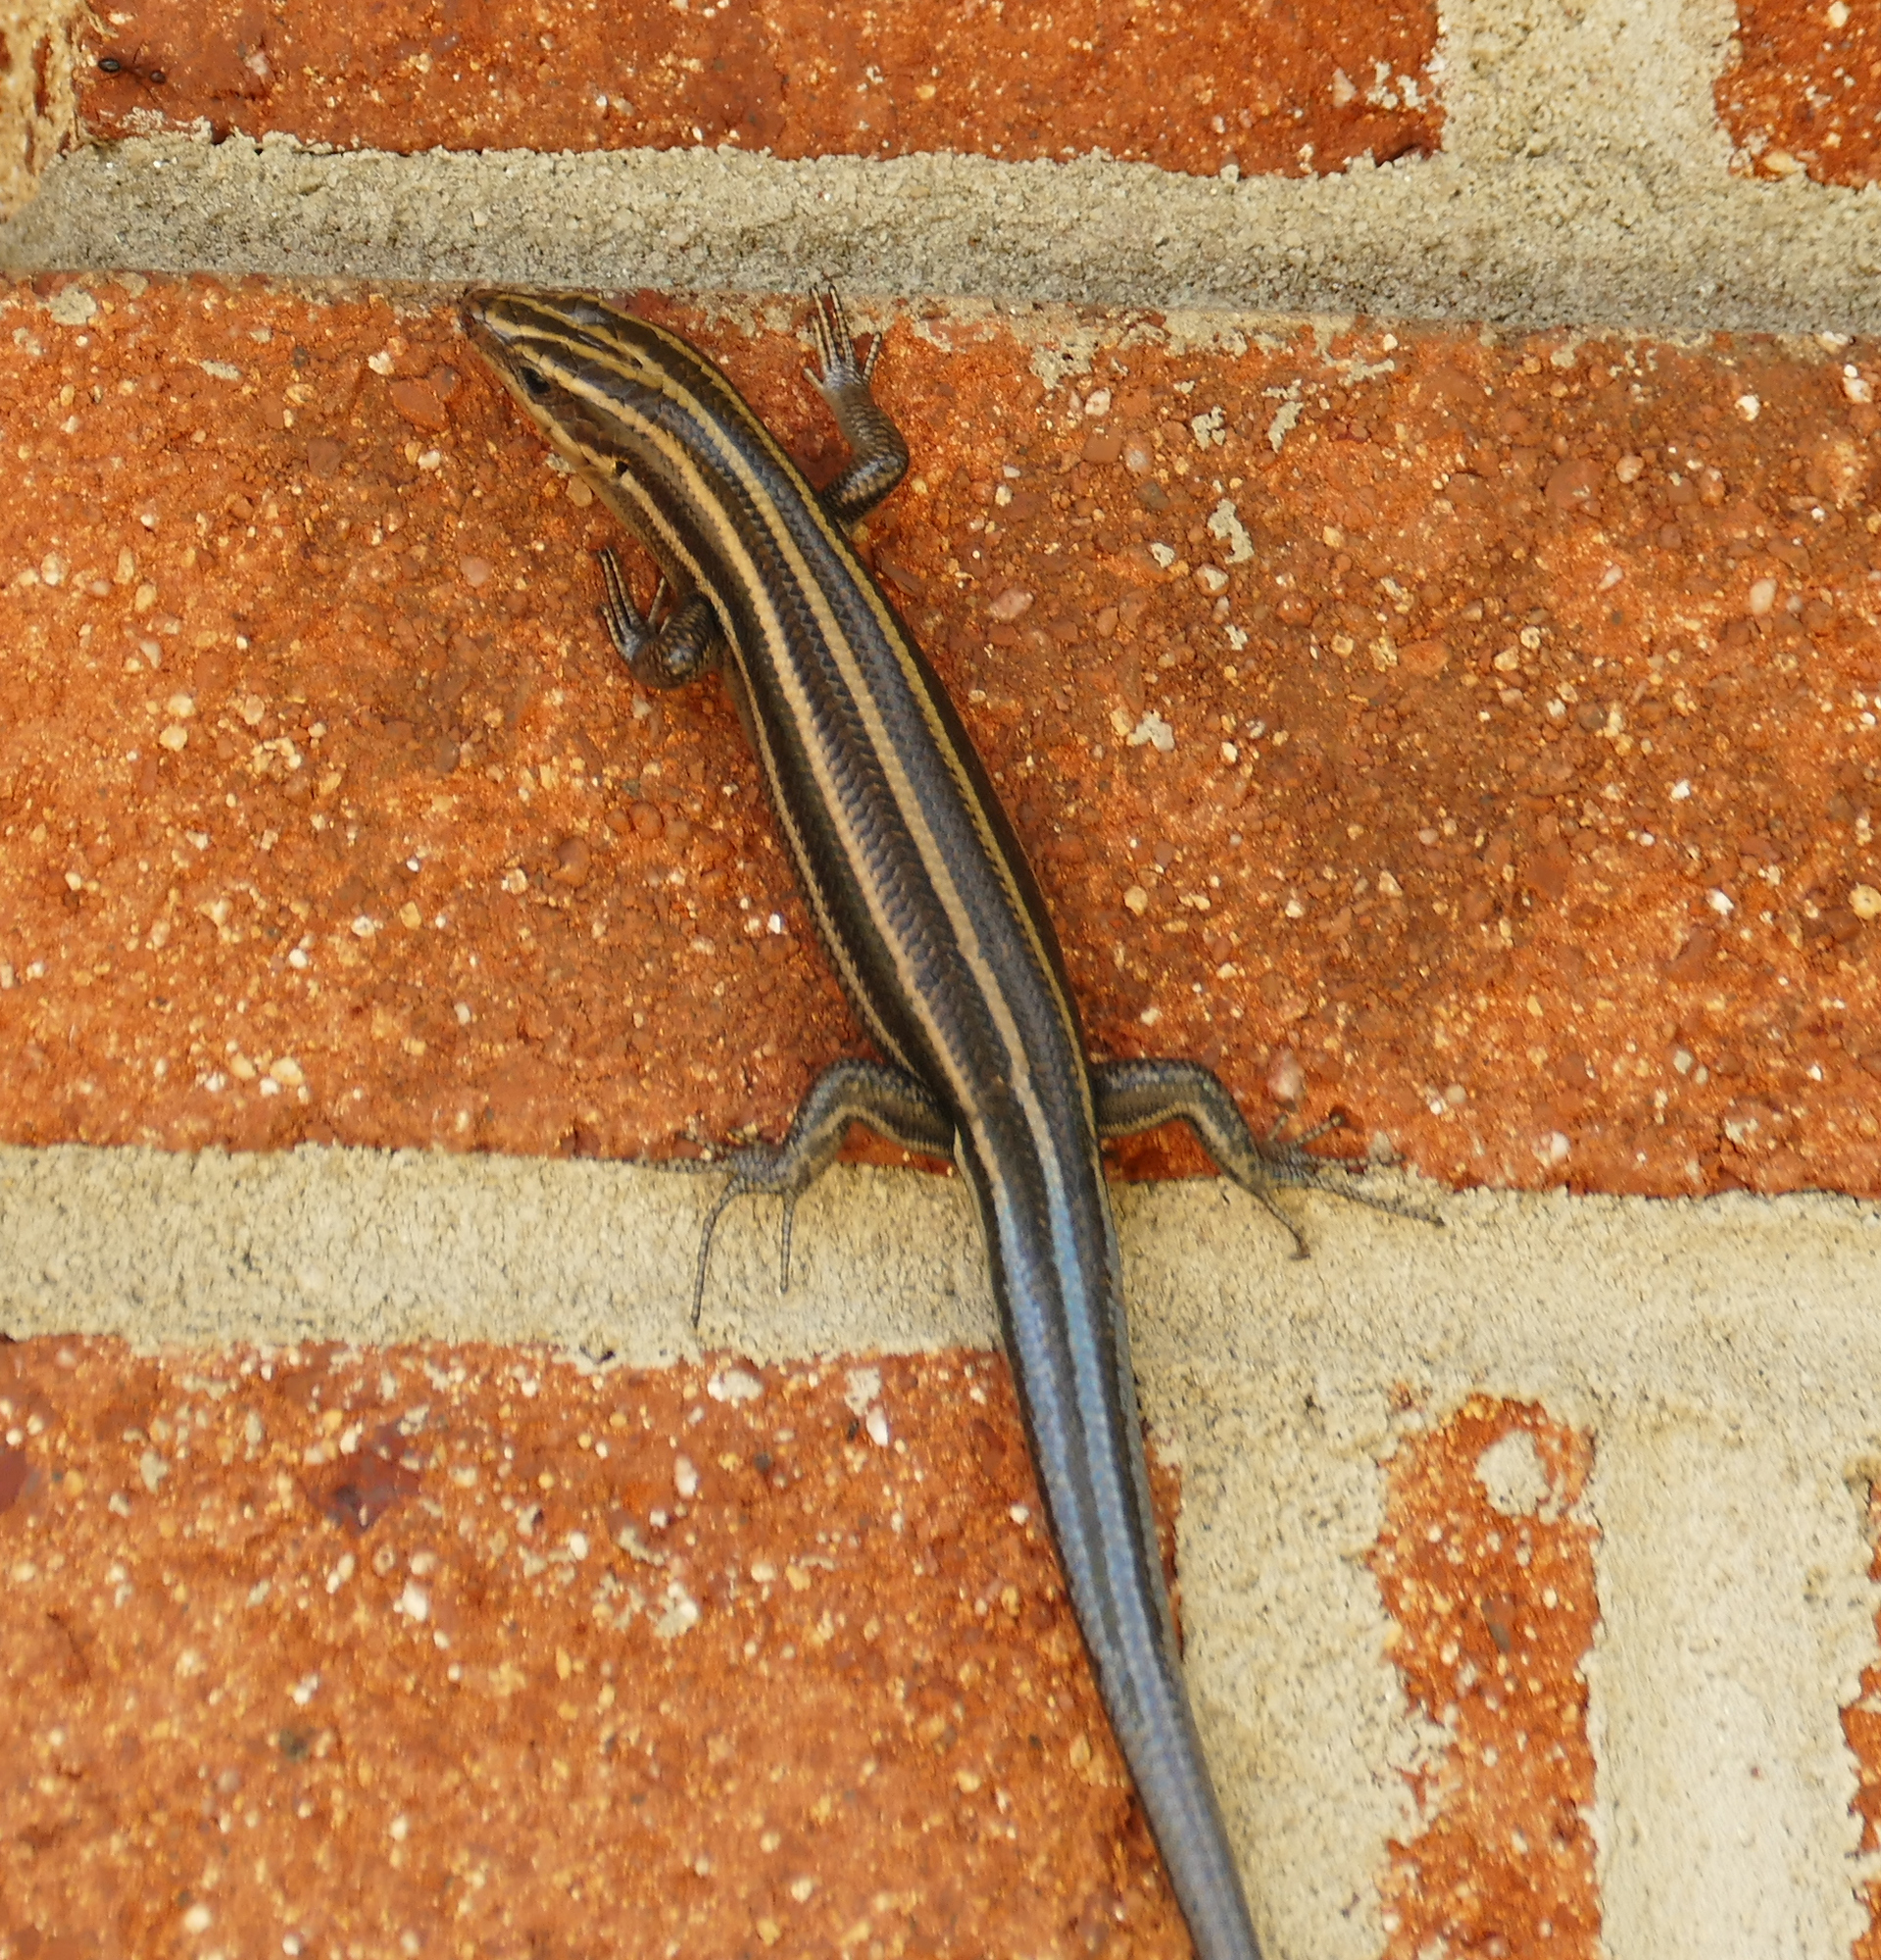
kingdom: Animalia
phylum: Chordata
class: Squamata
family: Scincidae
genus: Plestiodon
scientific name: Plestiodon fasciatus
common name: Five-lined skink
